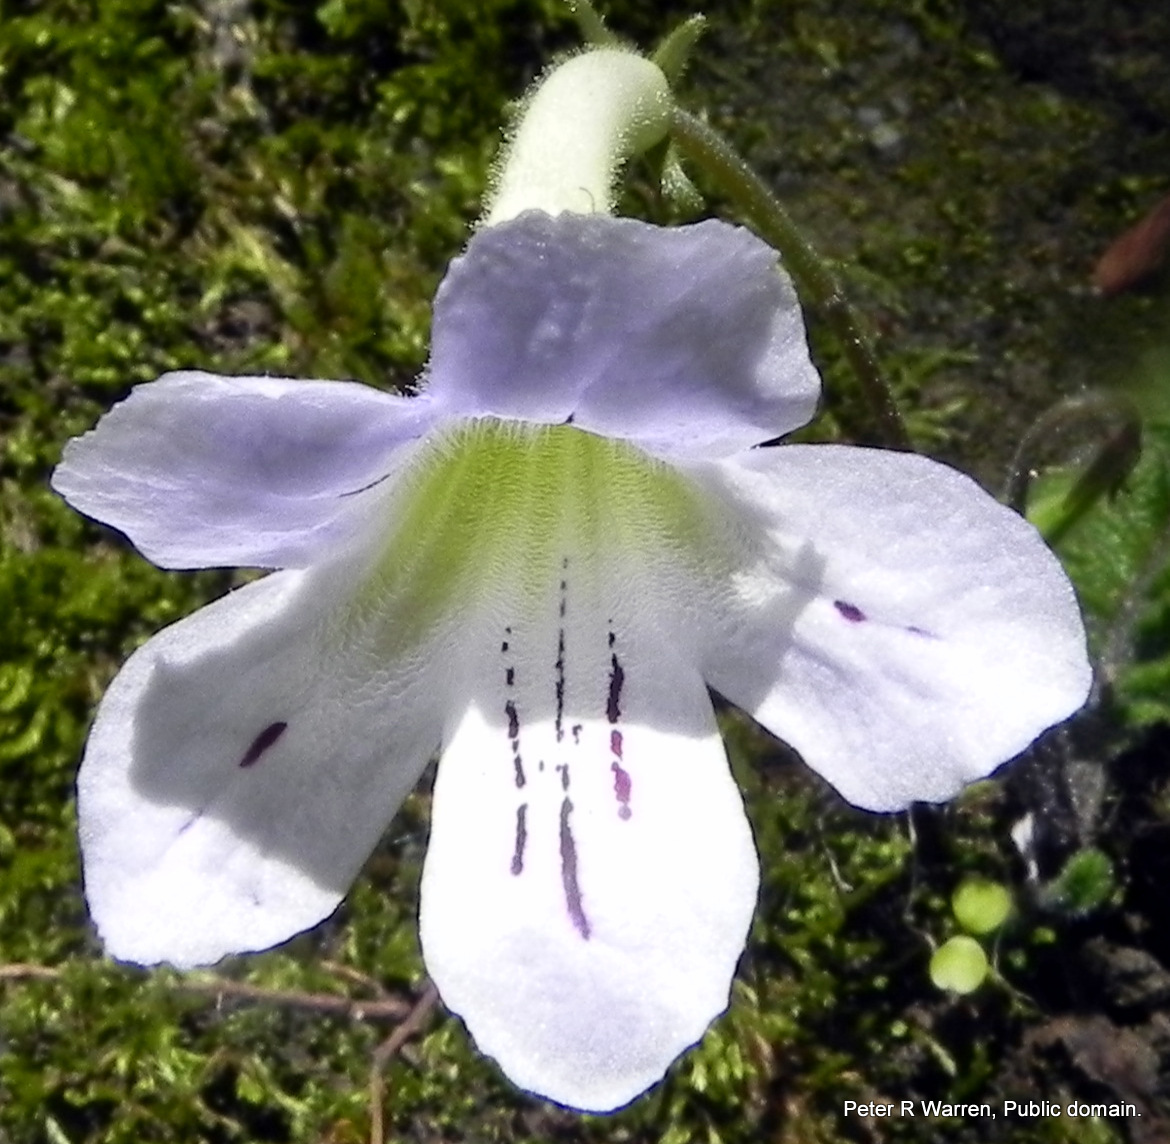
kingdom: Plantae
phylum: Tracheophyta
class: Magnoliopsida
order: Lamiales
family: Gesneriaceae
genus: Streptocarpus
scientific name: Streptocarpus gardenii
